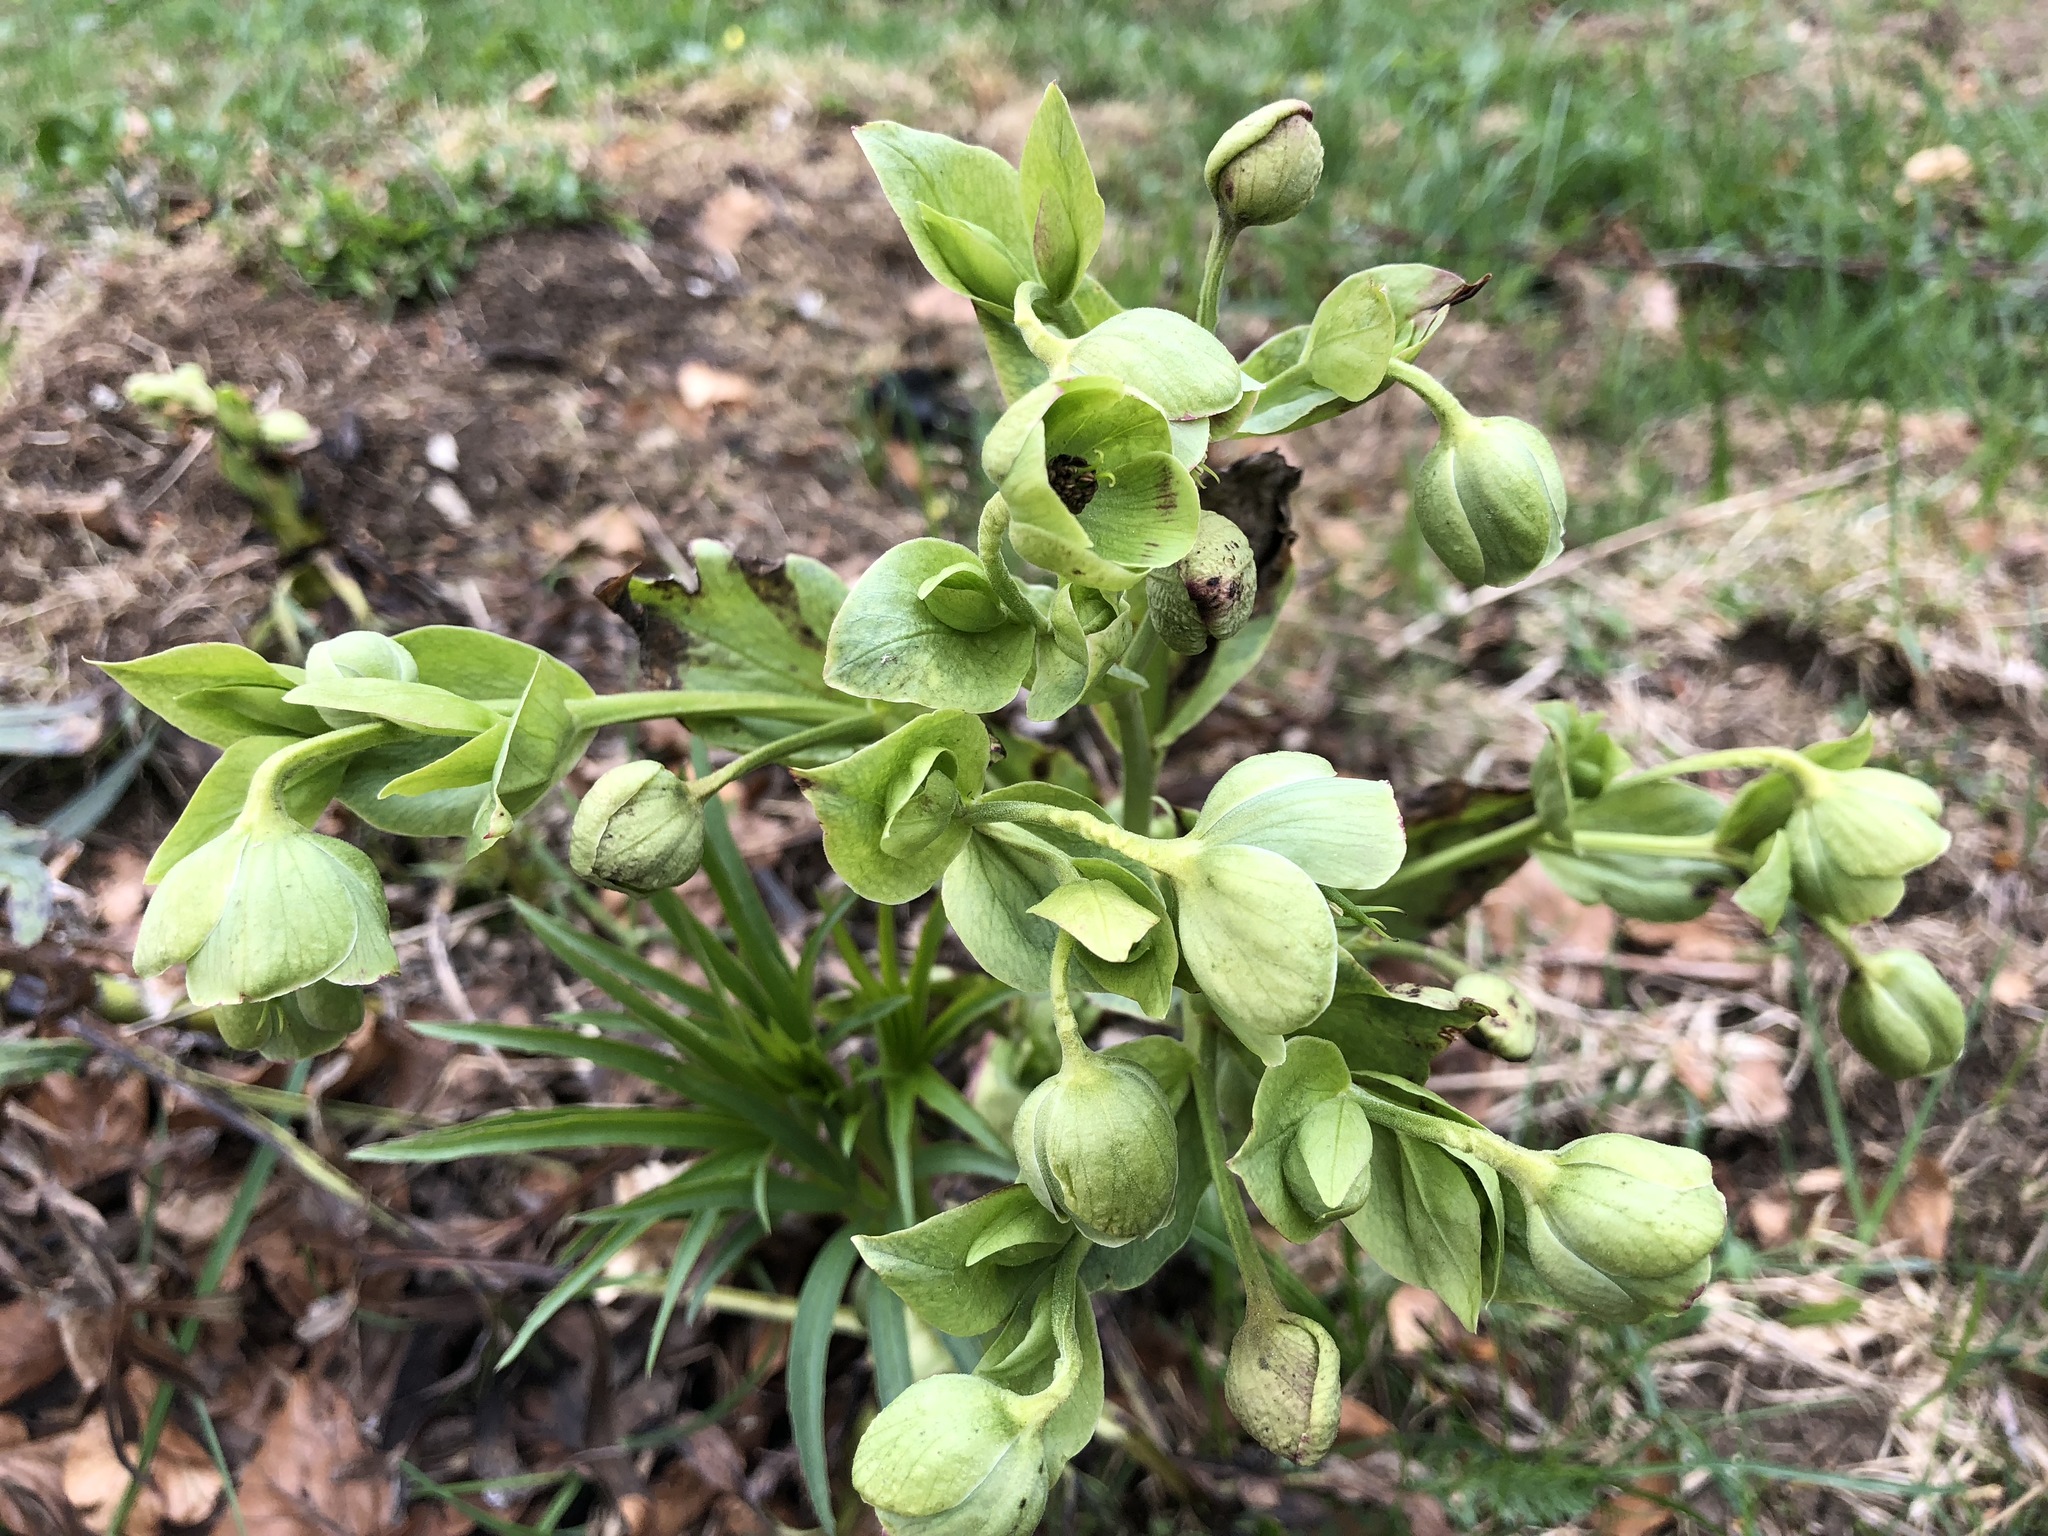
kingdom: Plantae
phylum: Tracheophyta
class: Magnoliopsida
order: Ranunculales
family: Ranunculaceae
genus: Helleborus
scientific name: Helleborus foetidus
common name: Stinking hellebore
